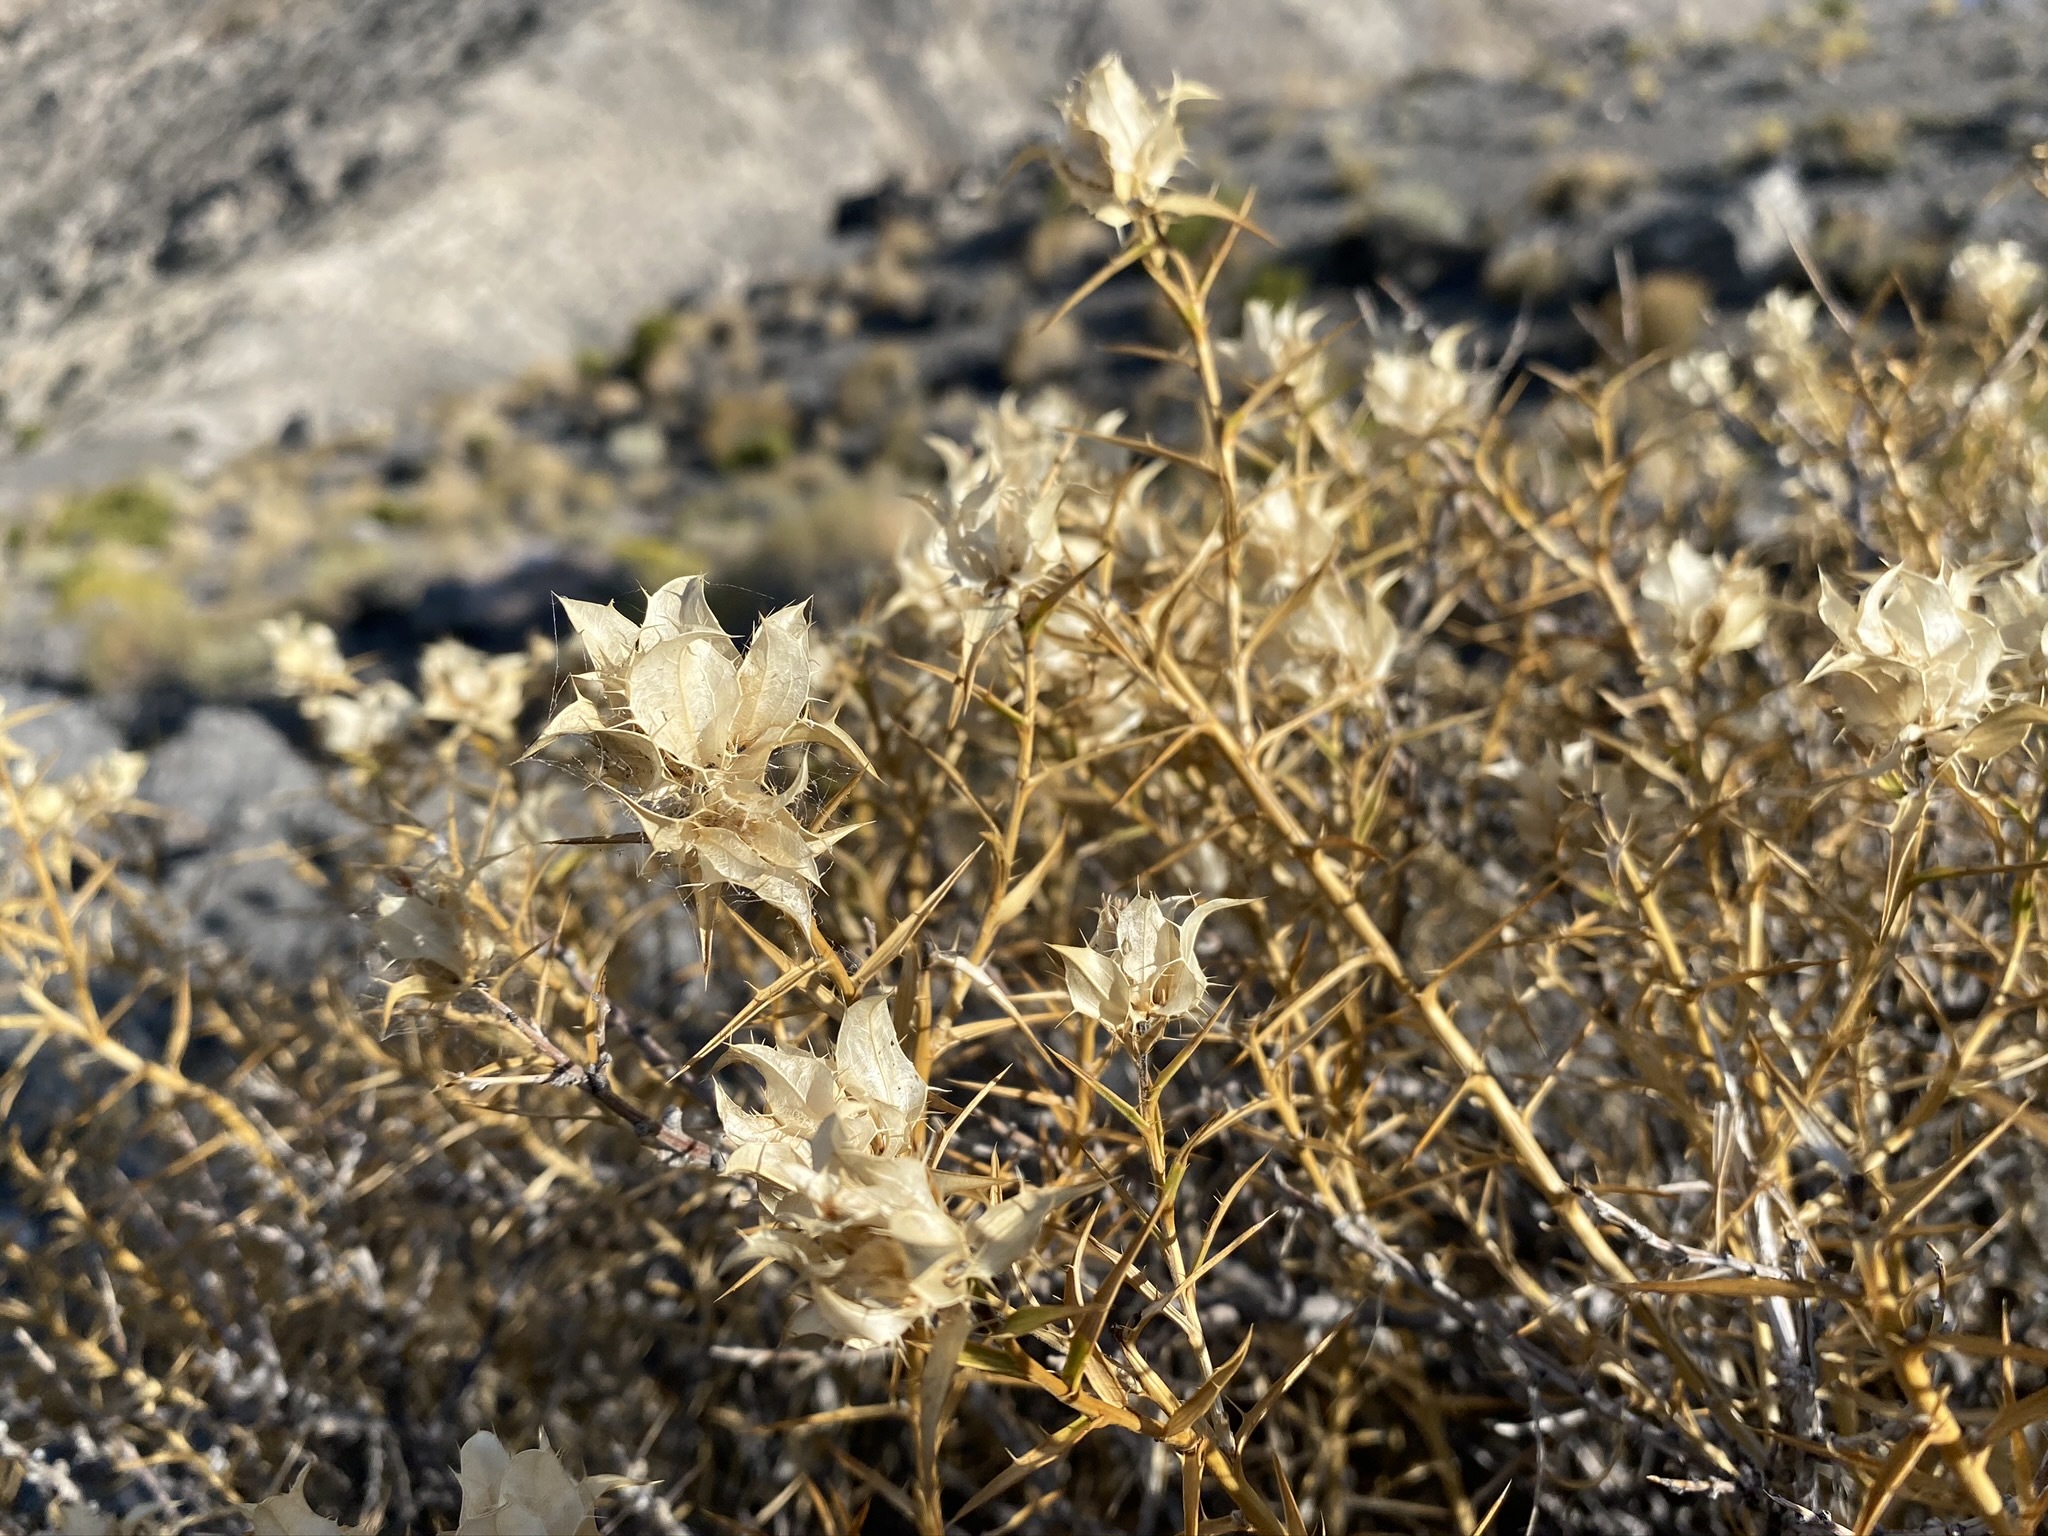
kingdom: Plantae
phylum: Tracheophyta
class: Magnoliopsida
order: Asterales
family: Asteraceae
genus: Hecastocleis
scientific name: Hecastocleis shockleyi
